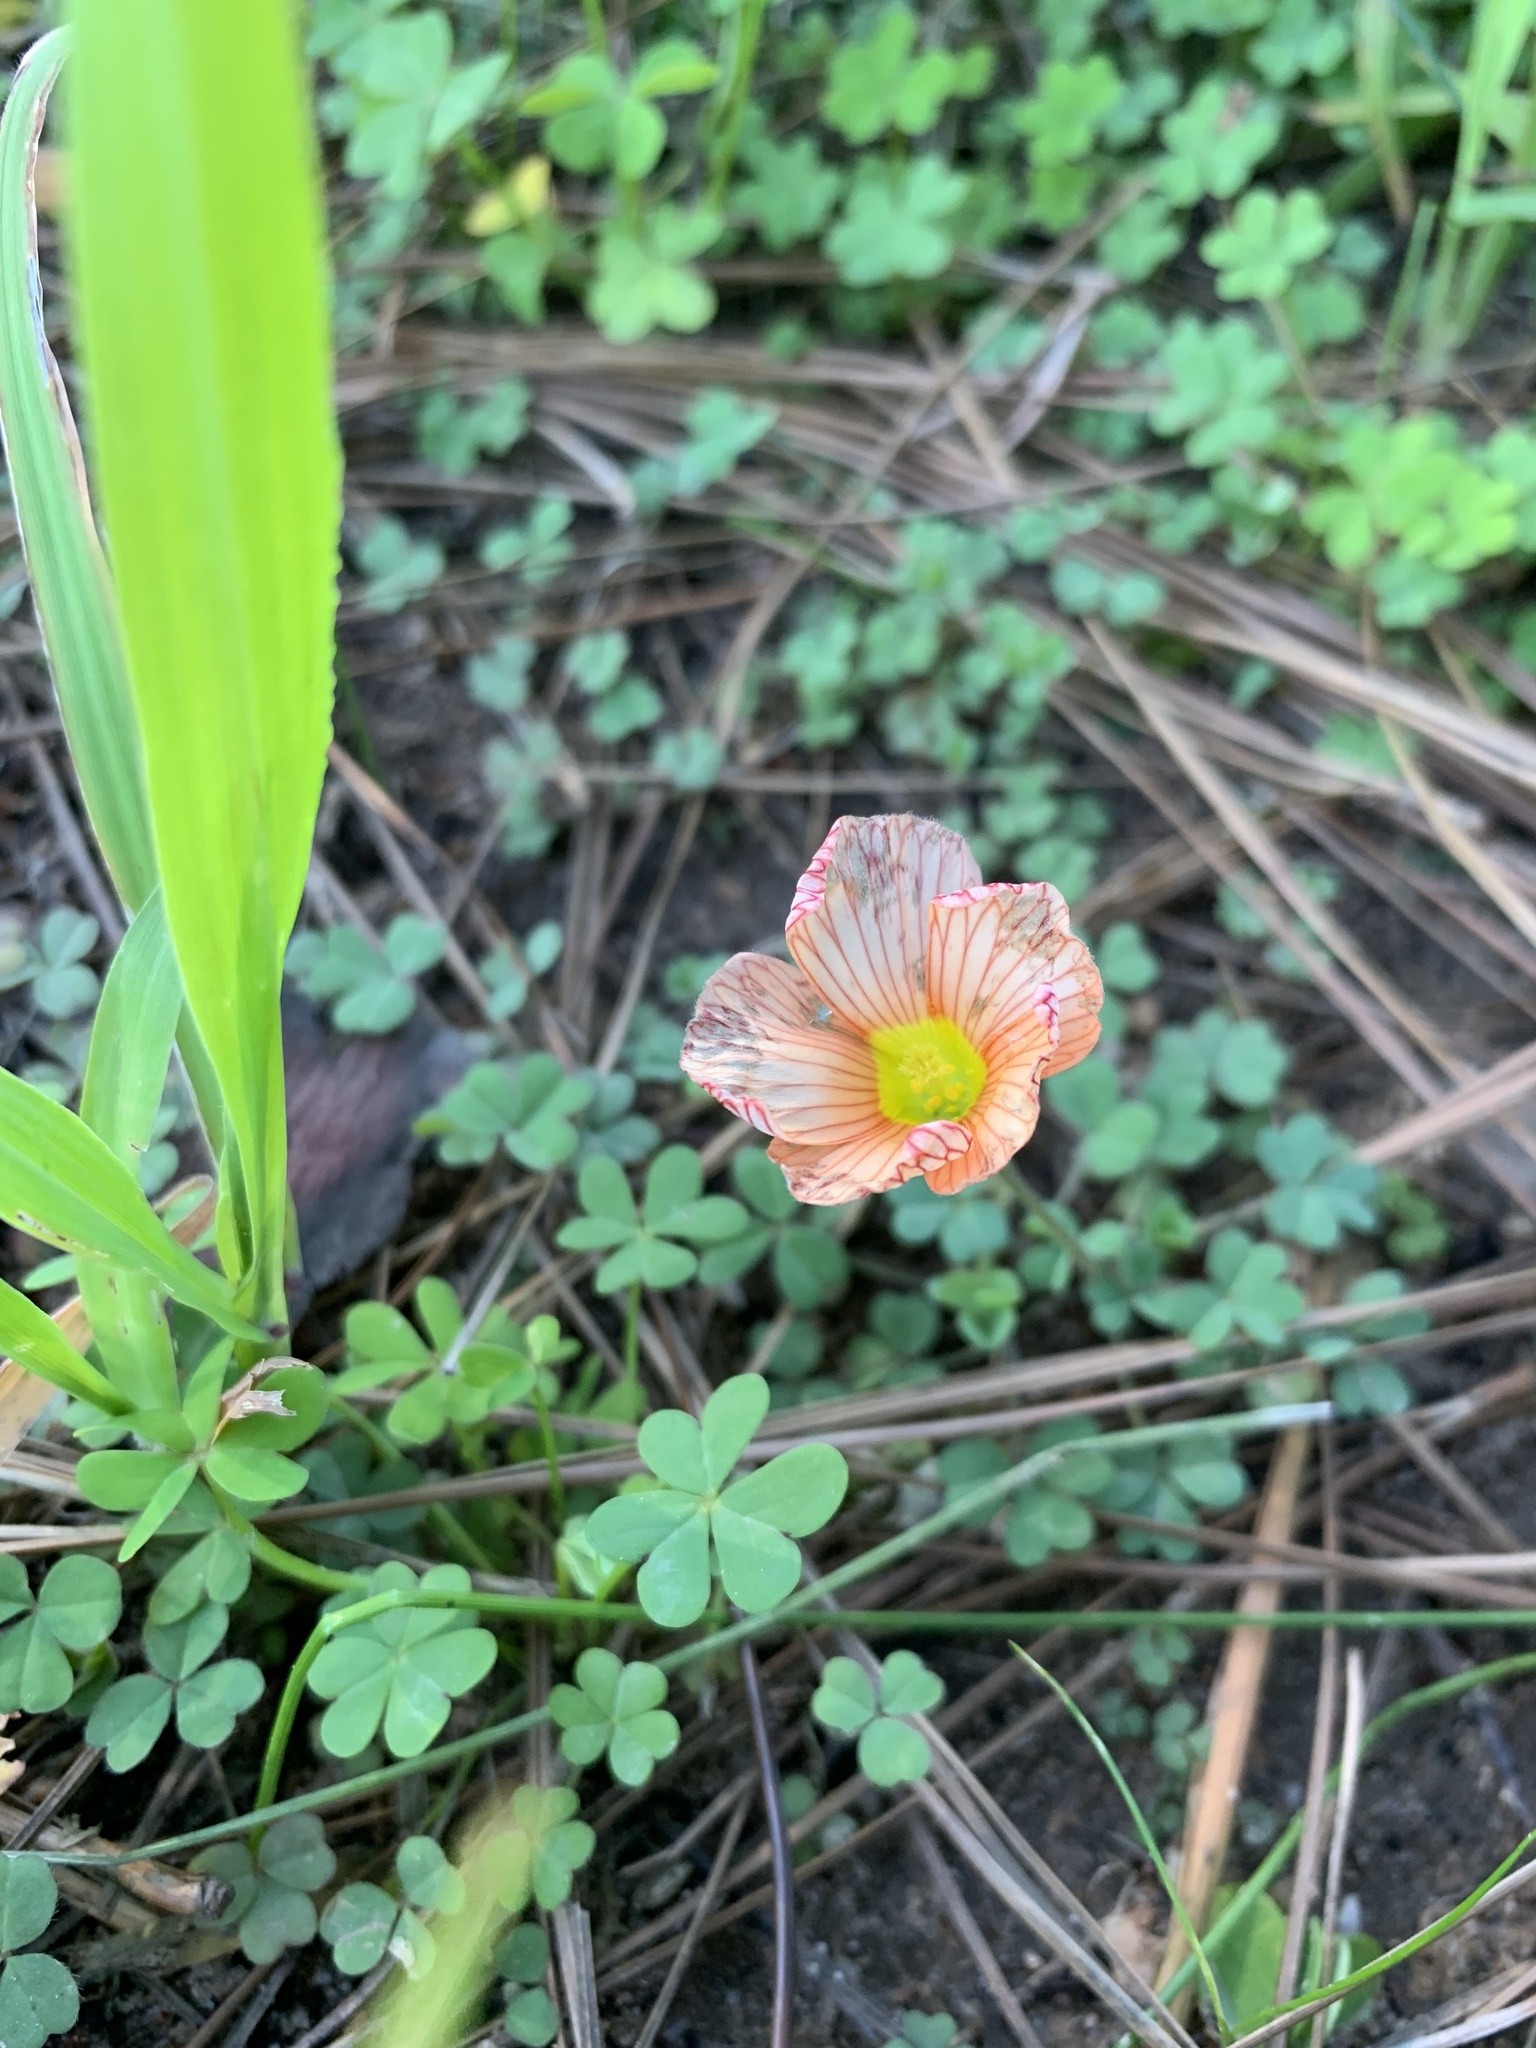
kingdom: Plantae
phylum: Tracheophyta
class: Magnoliopsida
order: Oxalidales
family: Oxalidaceae
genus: Oxalis
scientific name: Oxalis obtusa
